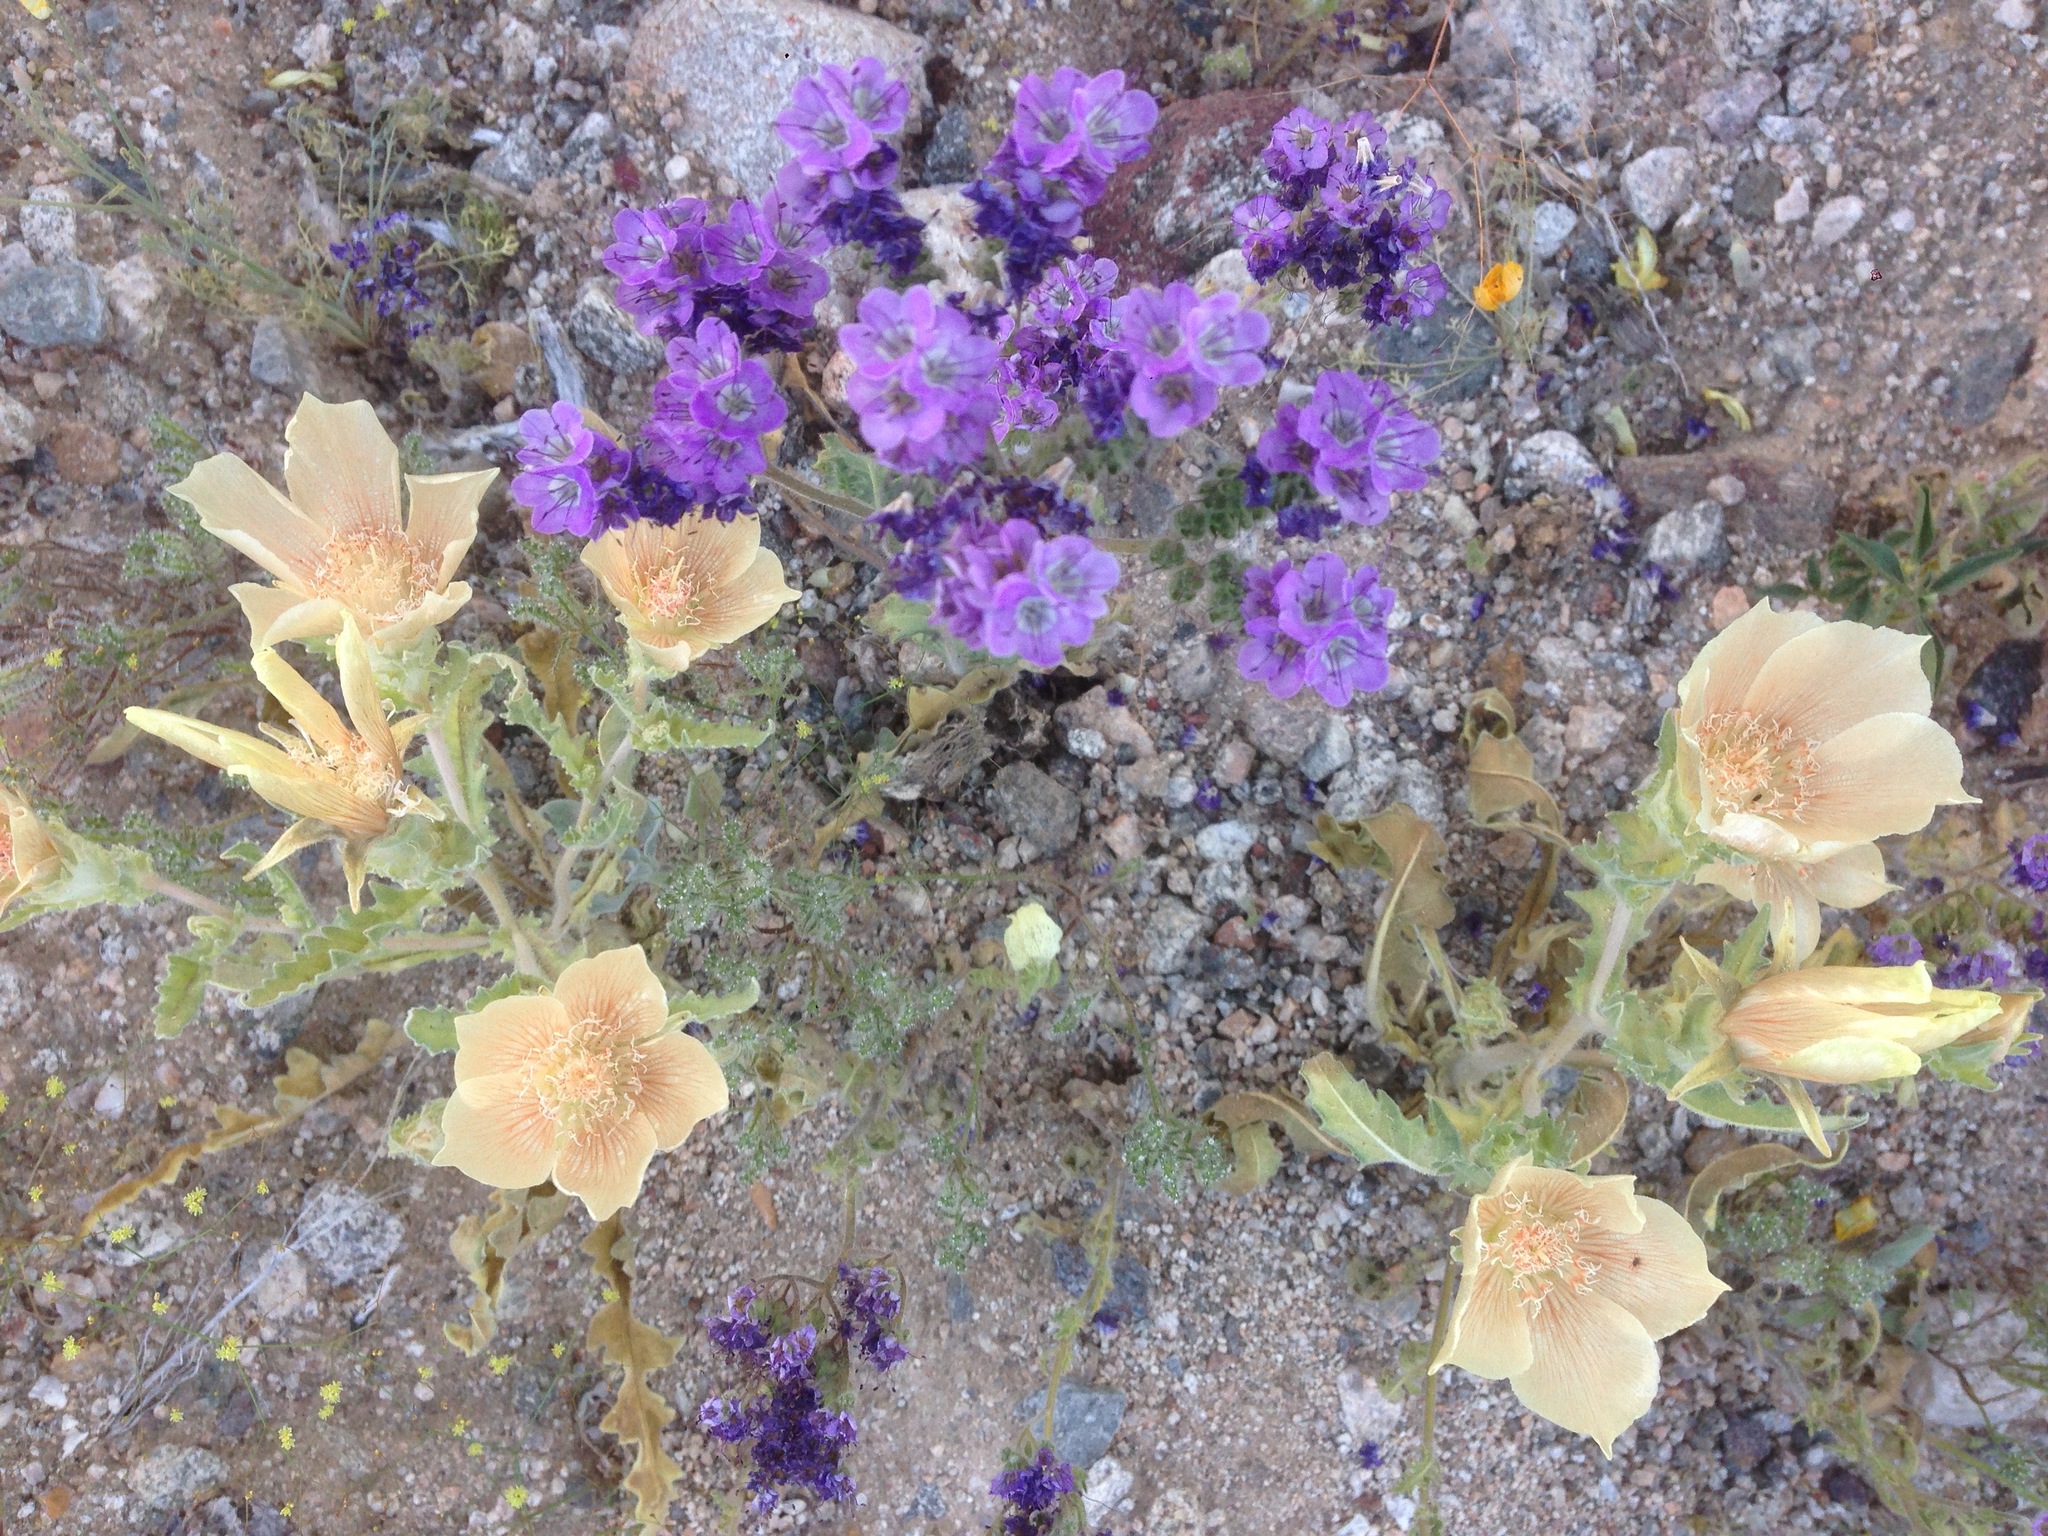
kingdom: Plantae
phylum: Tracheophyta
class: Magnoliopsida
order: Cornales
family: Loasaceae
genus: Mentzelia
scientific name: Mentzelia involucrata
